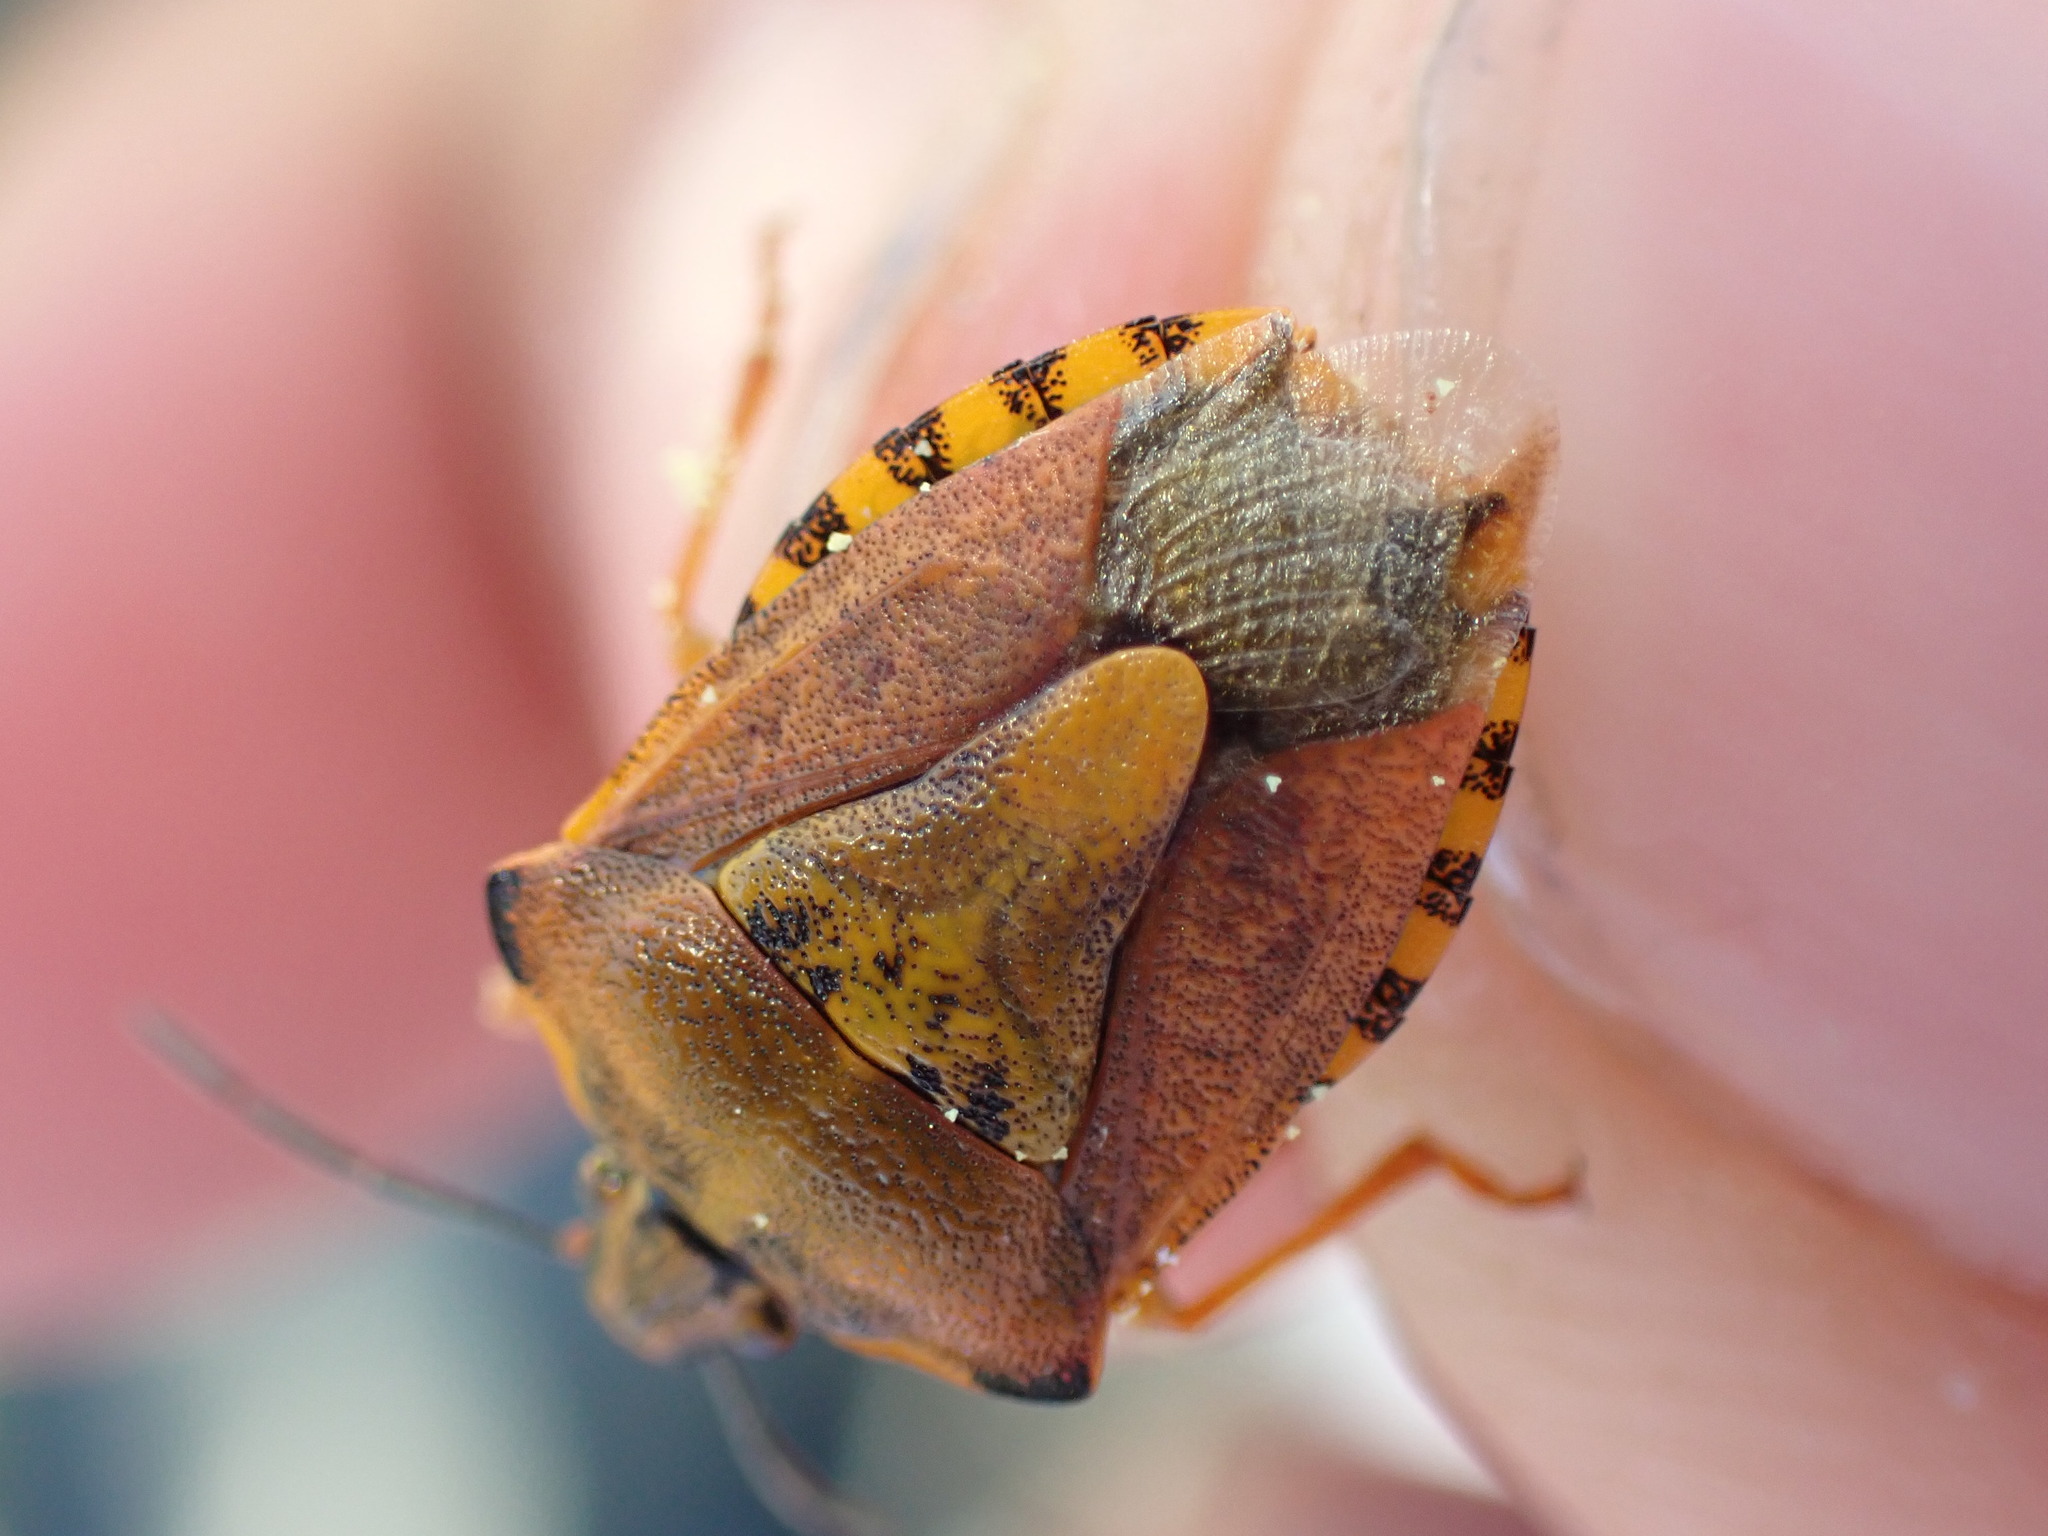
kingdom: Animalia
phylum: Arthropoda
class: Insecta
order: Hemiptera
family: Pentatomidae
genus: Carpocoris
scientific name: Carpocoris purpureipennis
